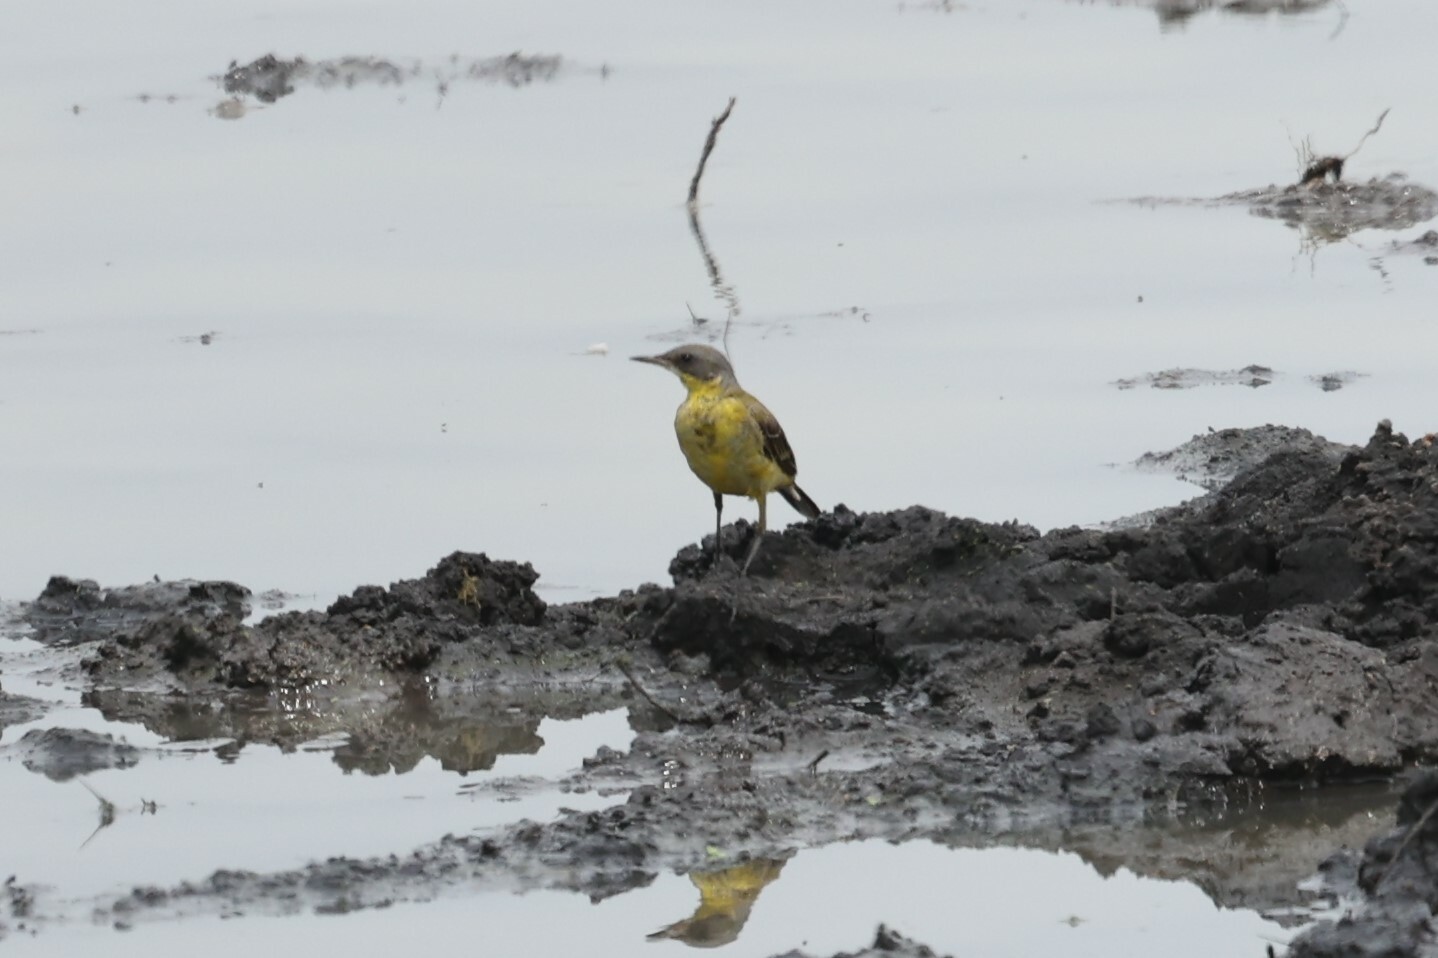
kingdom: Animalia
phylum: Chordata
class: Aves
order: Passeriformes
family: Motacillidae
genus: Motacilla
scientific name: Motacilla flava
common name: Western yellow wagtail
